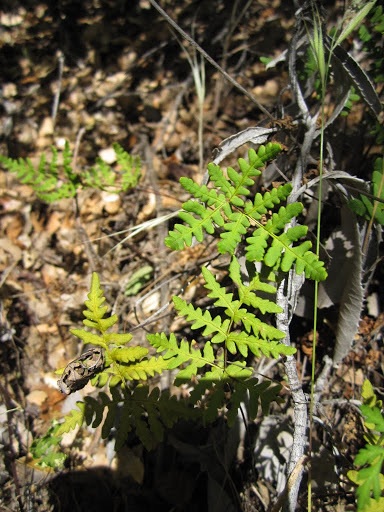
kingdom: Plantae
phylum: Tracheophyta
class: Polypodiopsida
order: Polypodiales
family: Pteridaceae
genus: Pentagramma
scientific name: Pentagramma triangularis
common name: Gold fern
